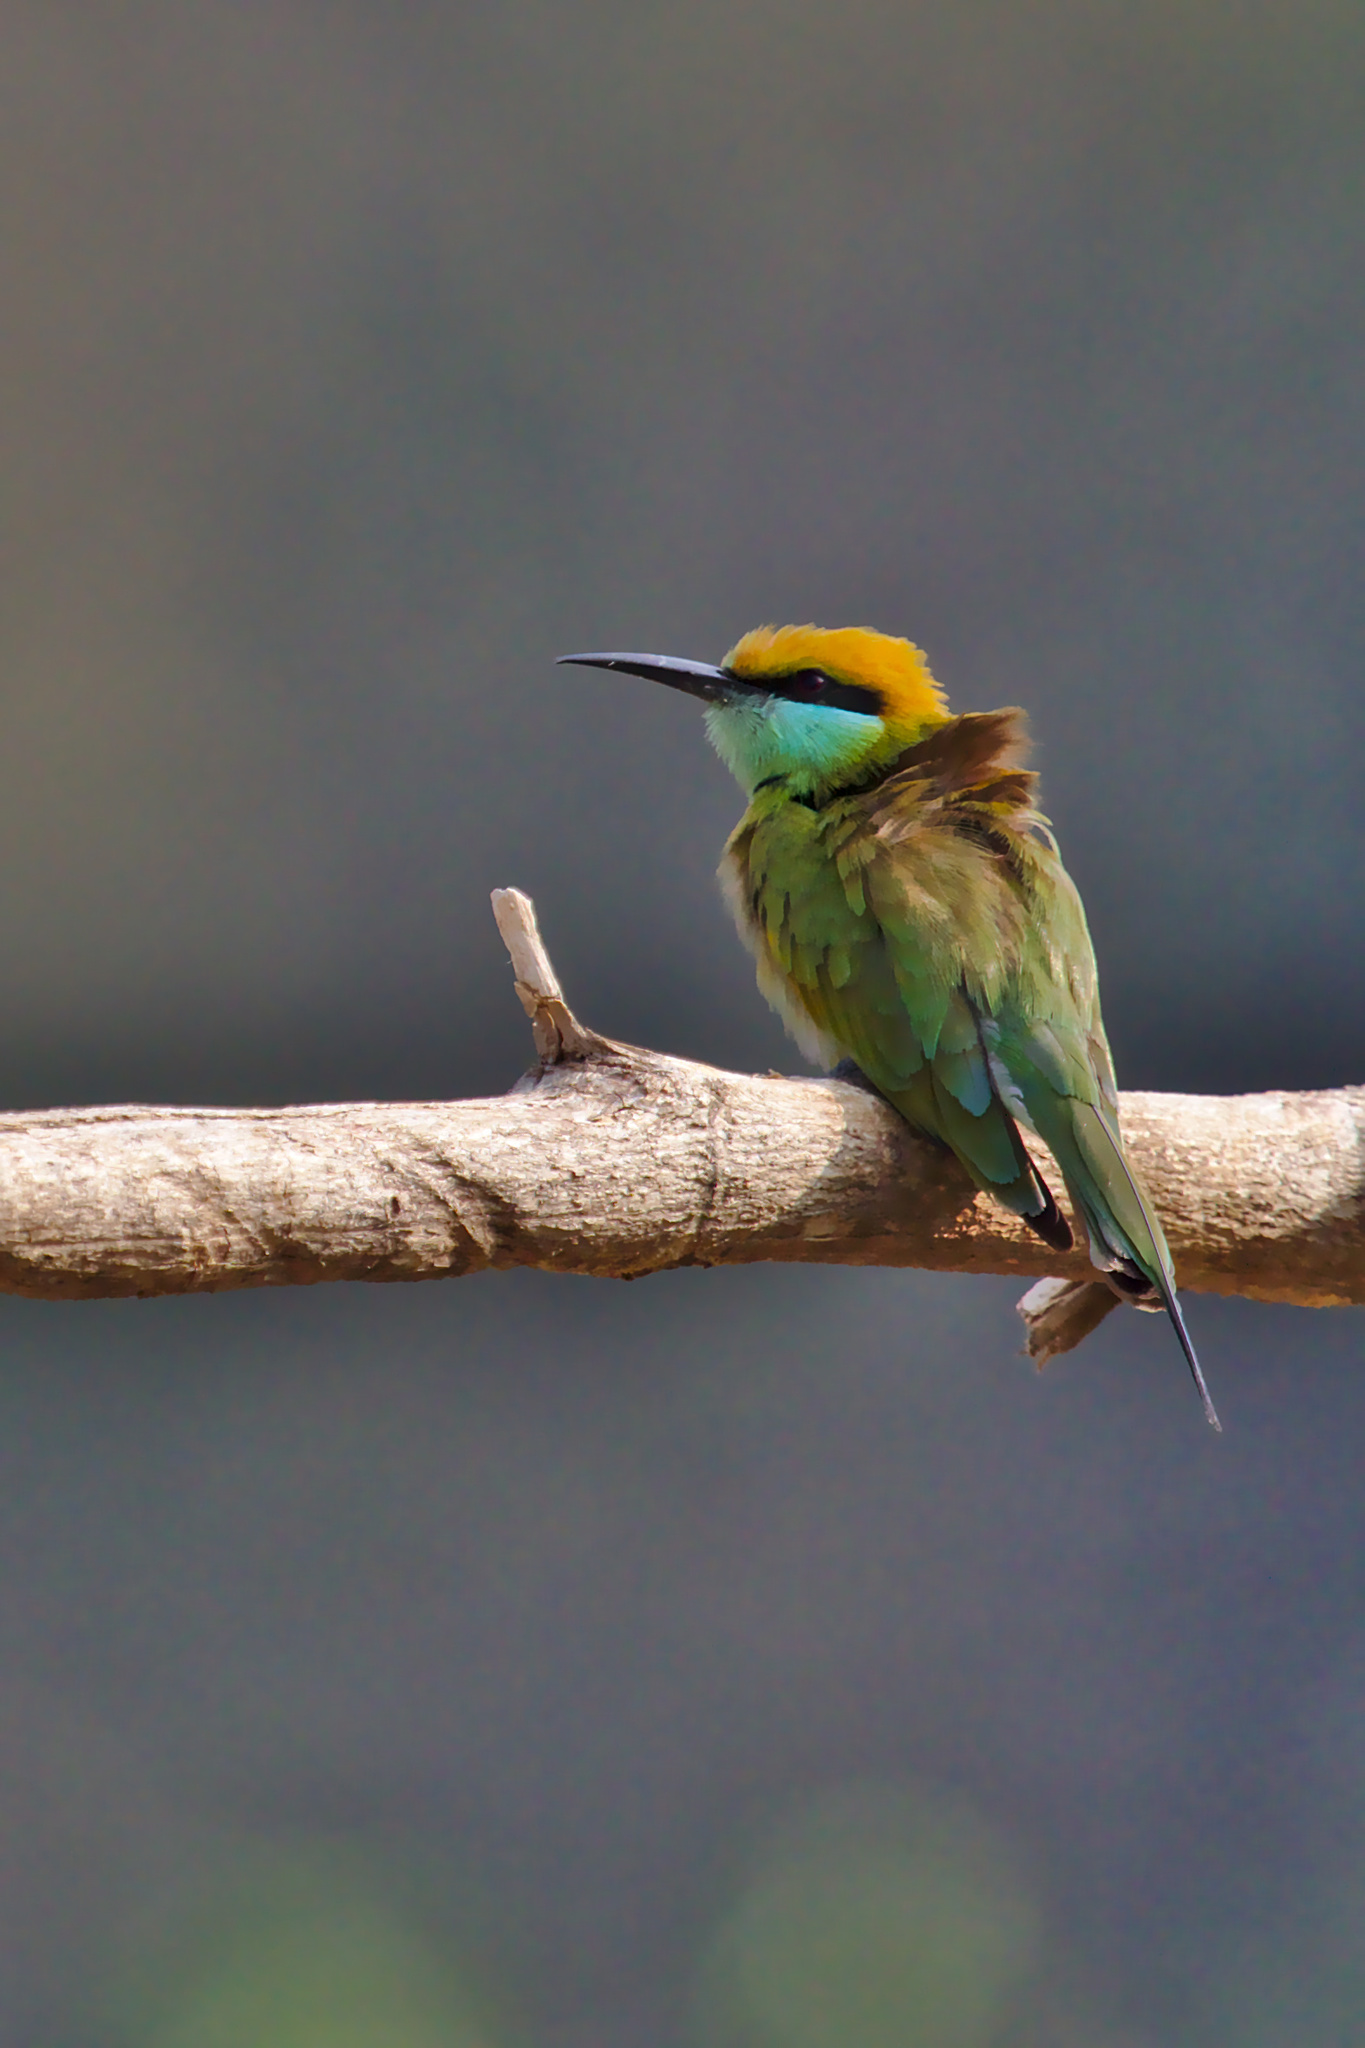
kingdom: Animalia
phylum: Chordata
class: Aves
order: Coraciiformes
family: Meropidae
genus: Merops
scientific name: Merops orientalis
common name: Green bee-eater
